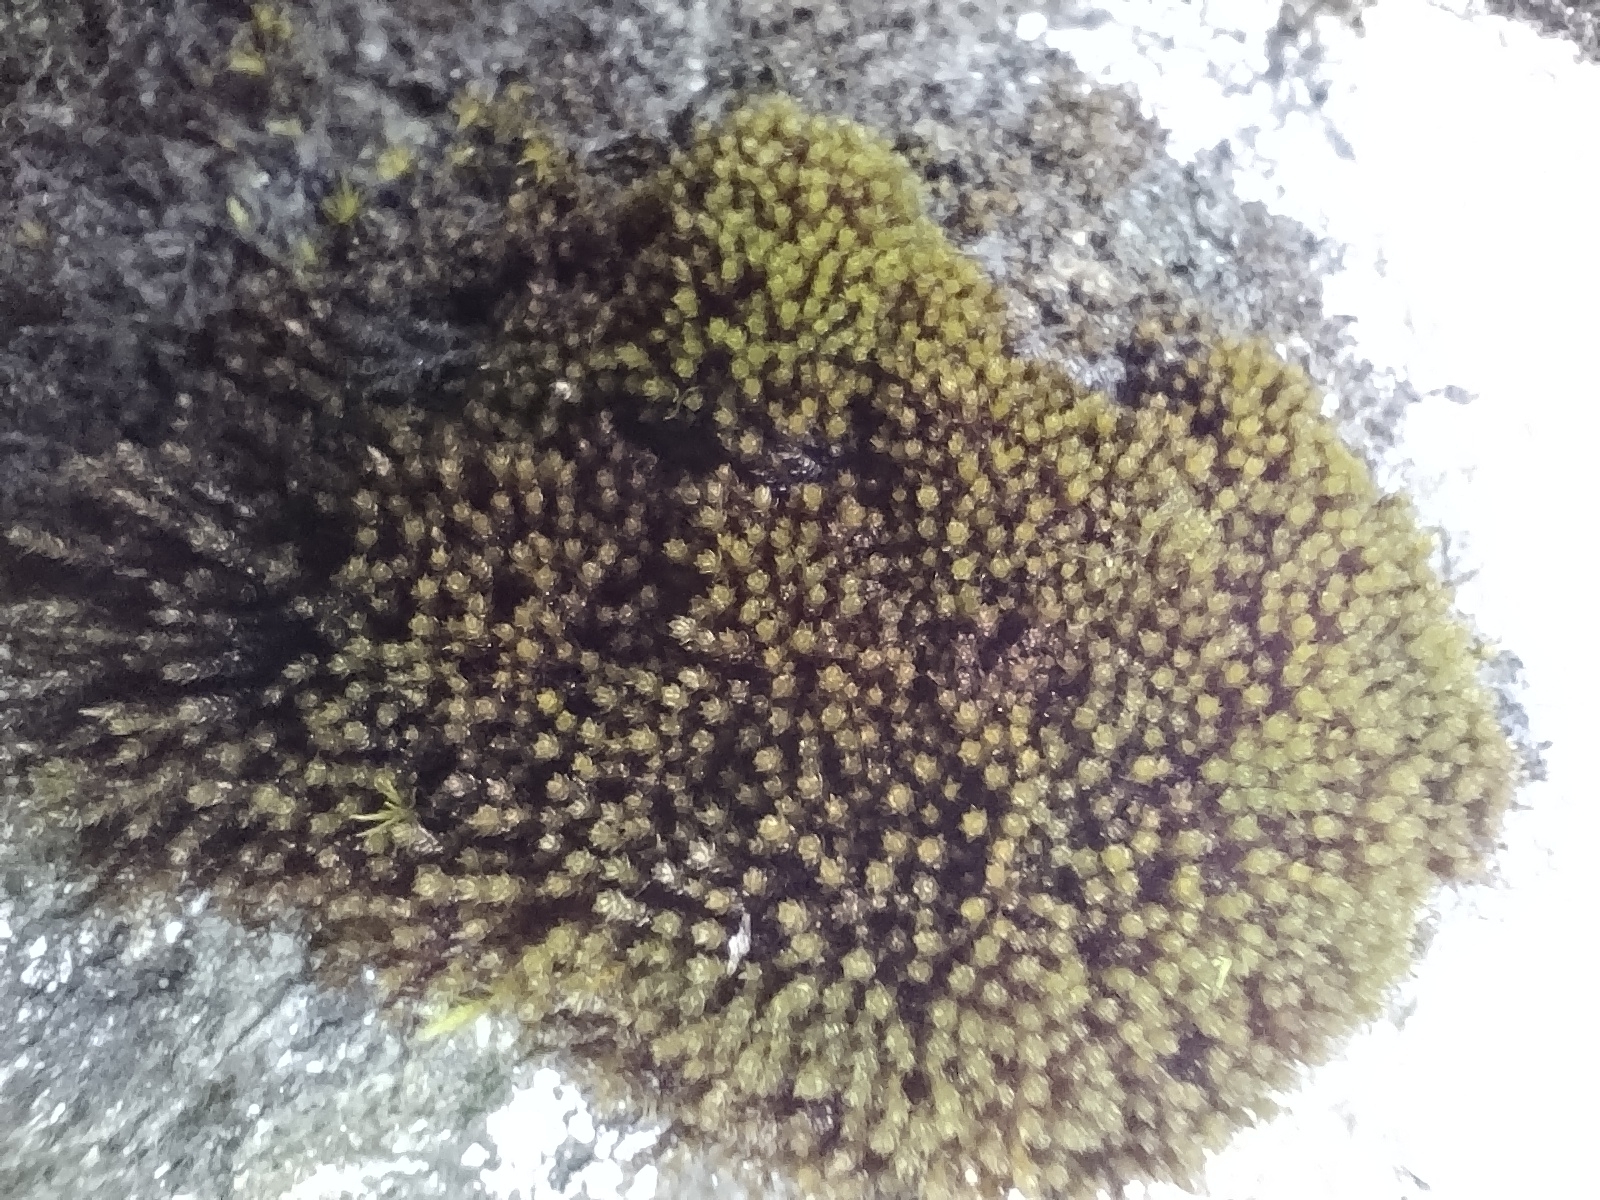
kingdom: Plantae
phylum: Bryophyta
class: Andreaeopsida
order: Andreaeales
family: Andreaeaceae
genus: Andreaea
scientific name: Andreaea rupestris
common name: Black rock moss
